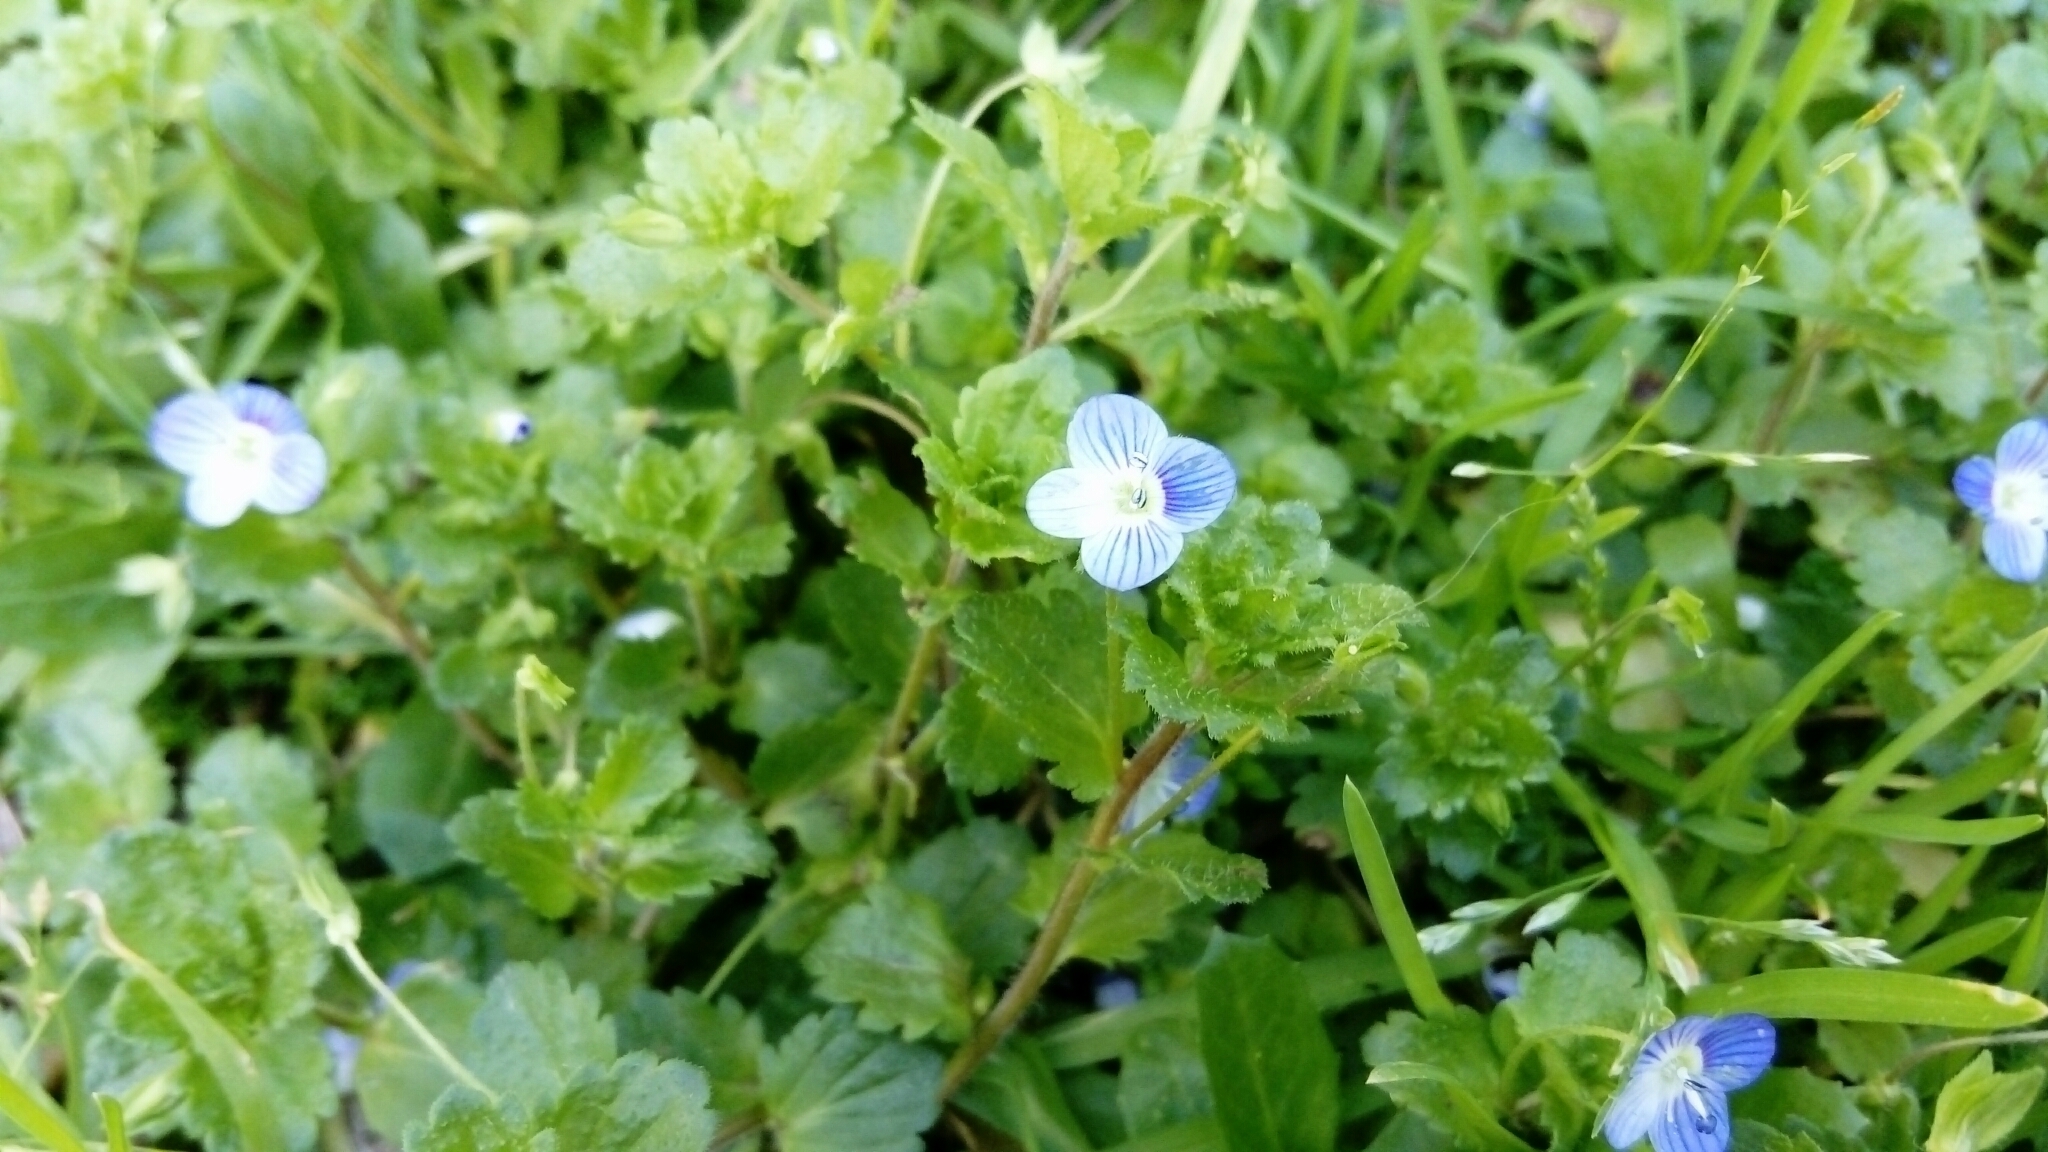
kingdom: Plantae
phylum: Tracheophyta
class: Magnoliopsida
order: Lamiales
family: Plantaginaceae
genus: Veronica
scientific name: Veronica persica
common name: Common field-speedwell
